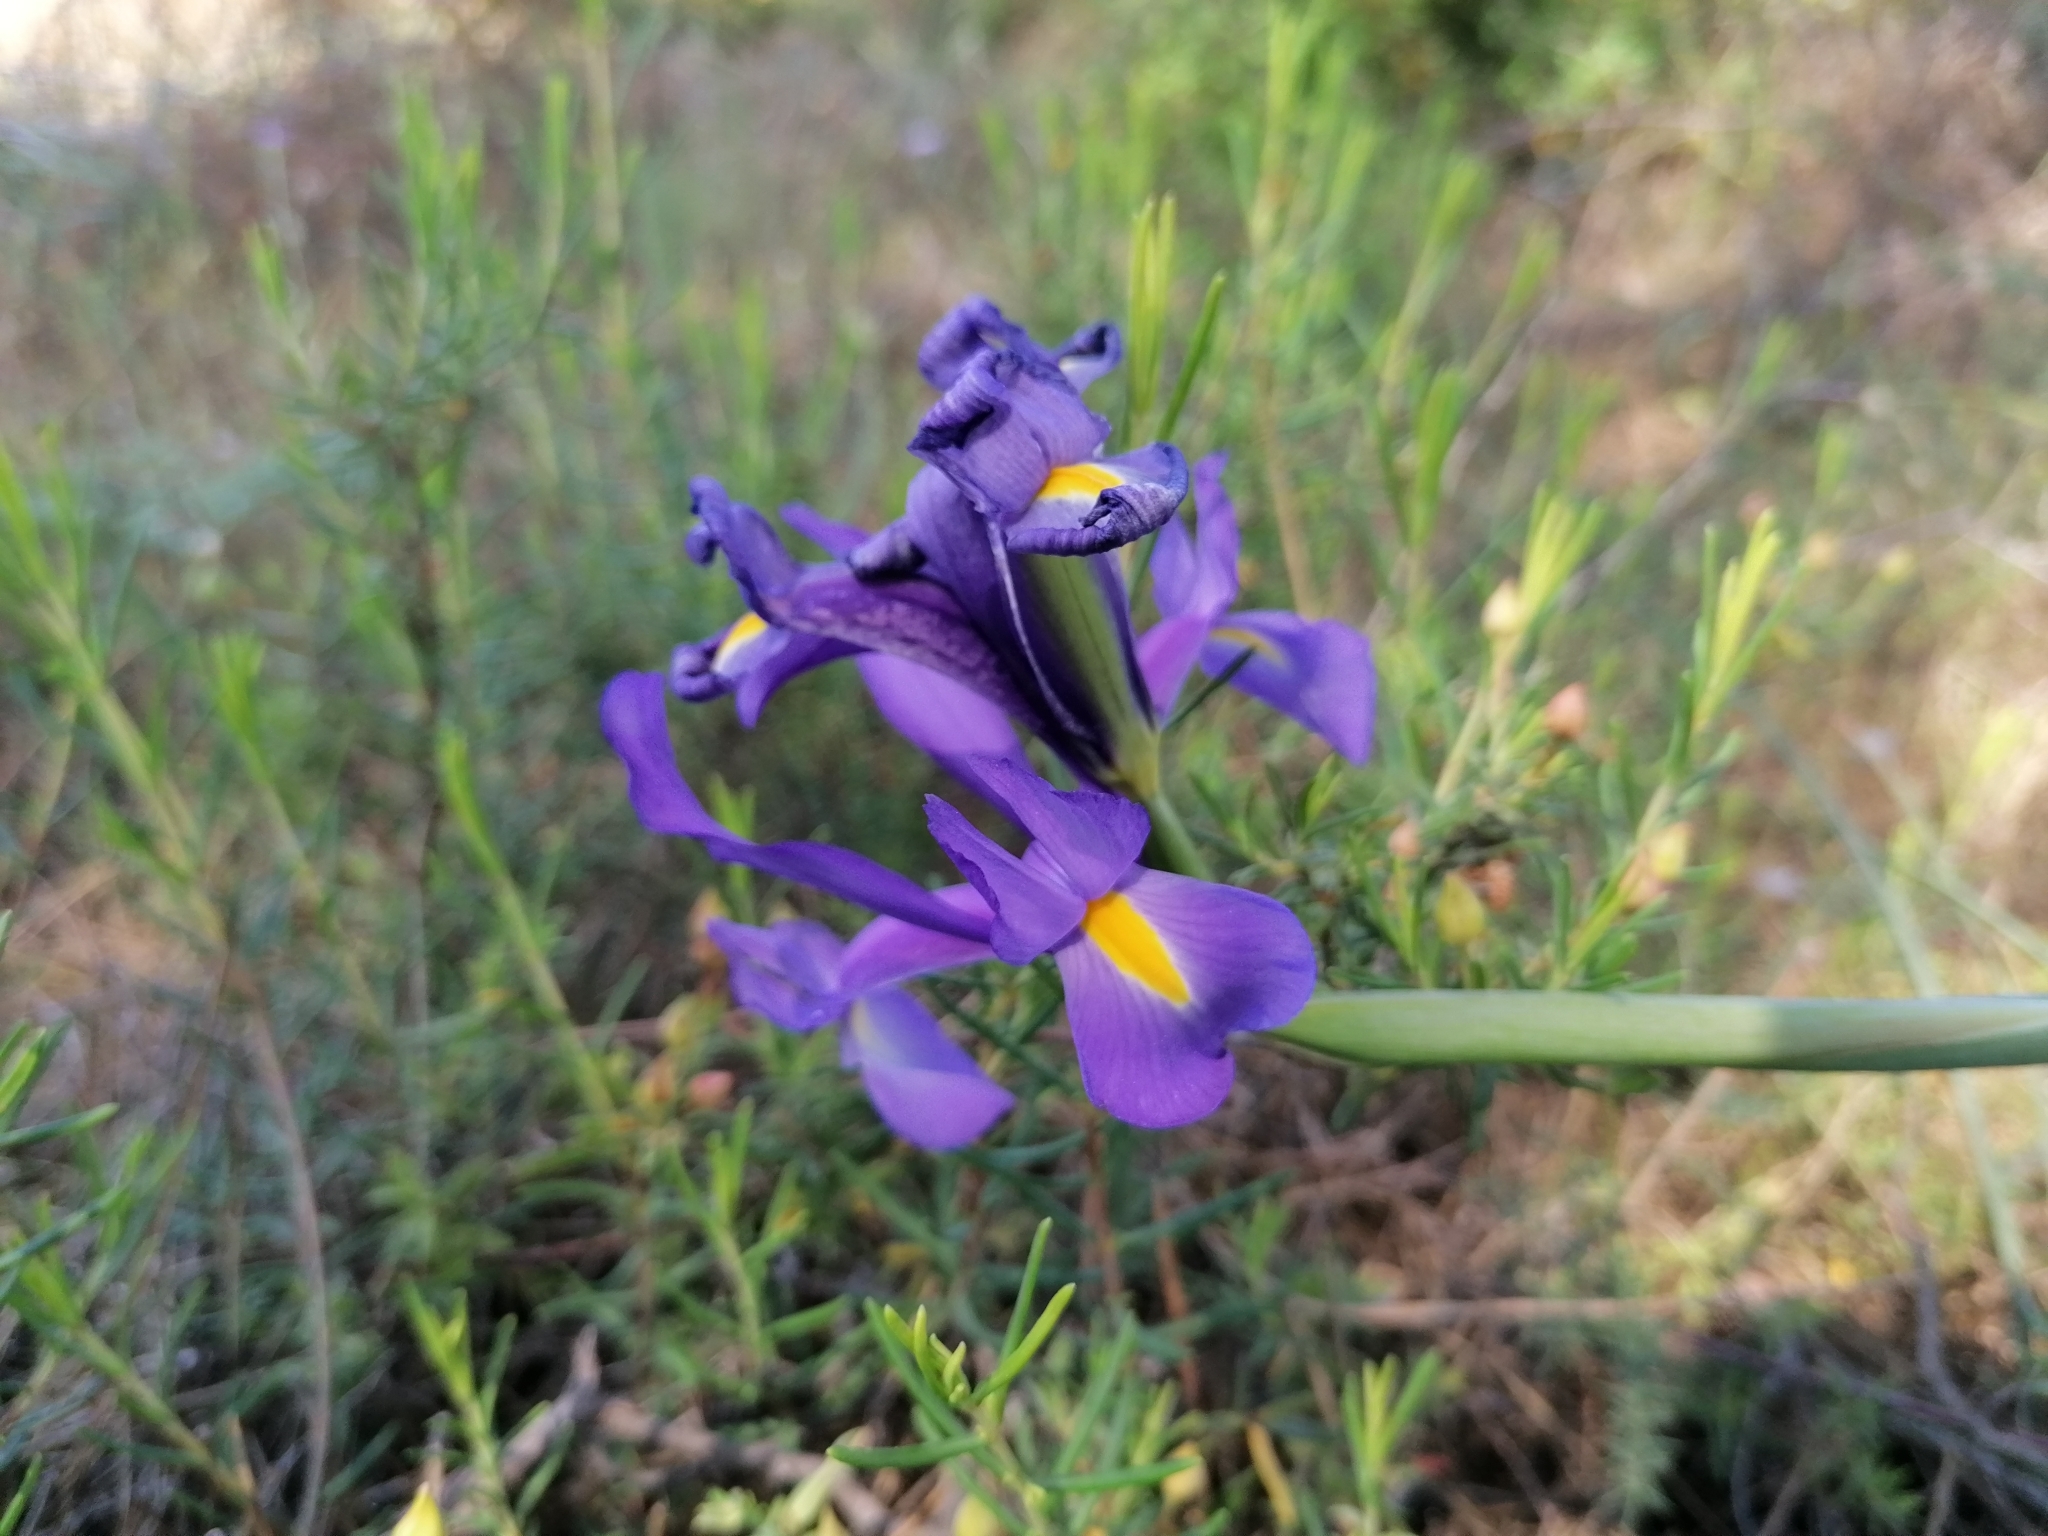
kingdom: Plantae
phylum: Tracheophyta
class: Liliopsida
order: Asparagales
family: Iridaceae
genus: Iris
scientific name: Iris xiphium
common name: Spanish iris
